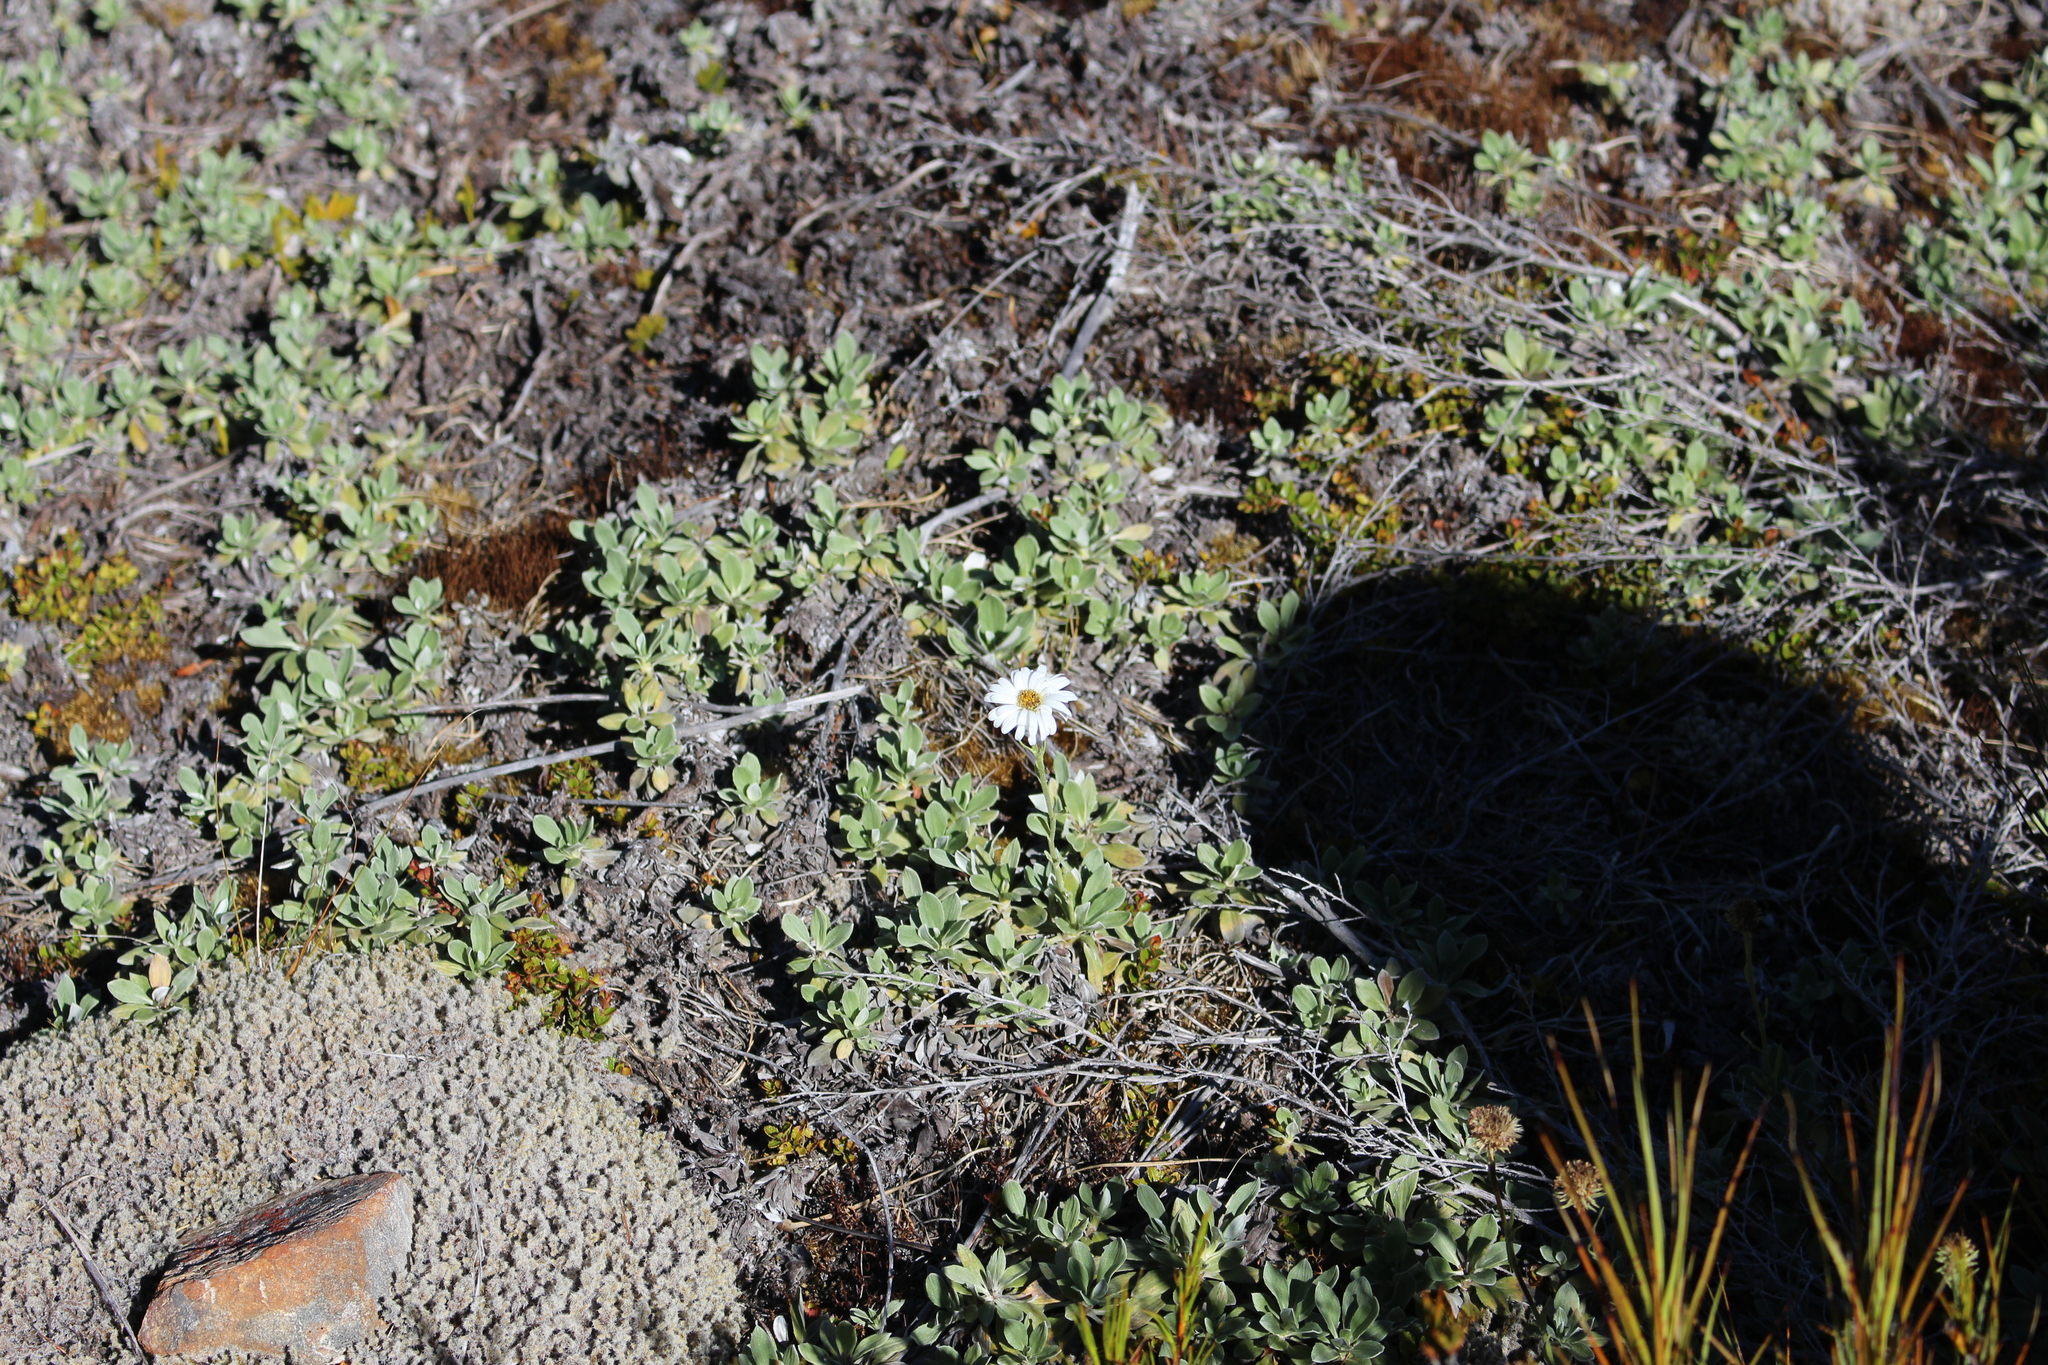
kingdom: Plantae
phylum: Tracheophyta
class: Magnoliopsida
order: Asterales
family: Asteraceae
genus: Celmisia
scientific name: Celmisia discolor
